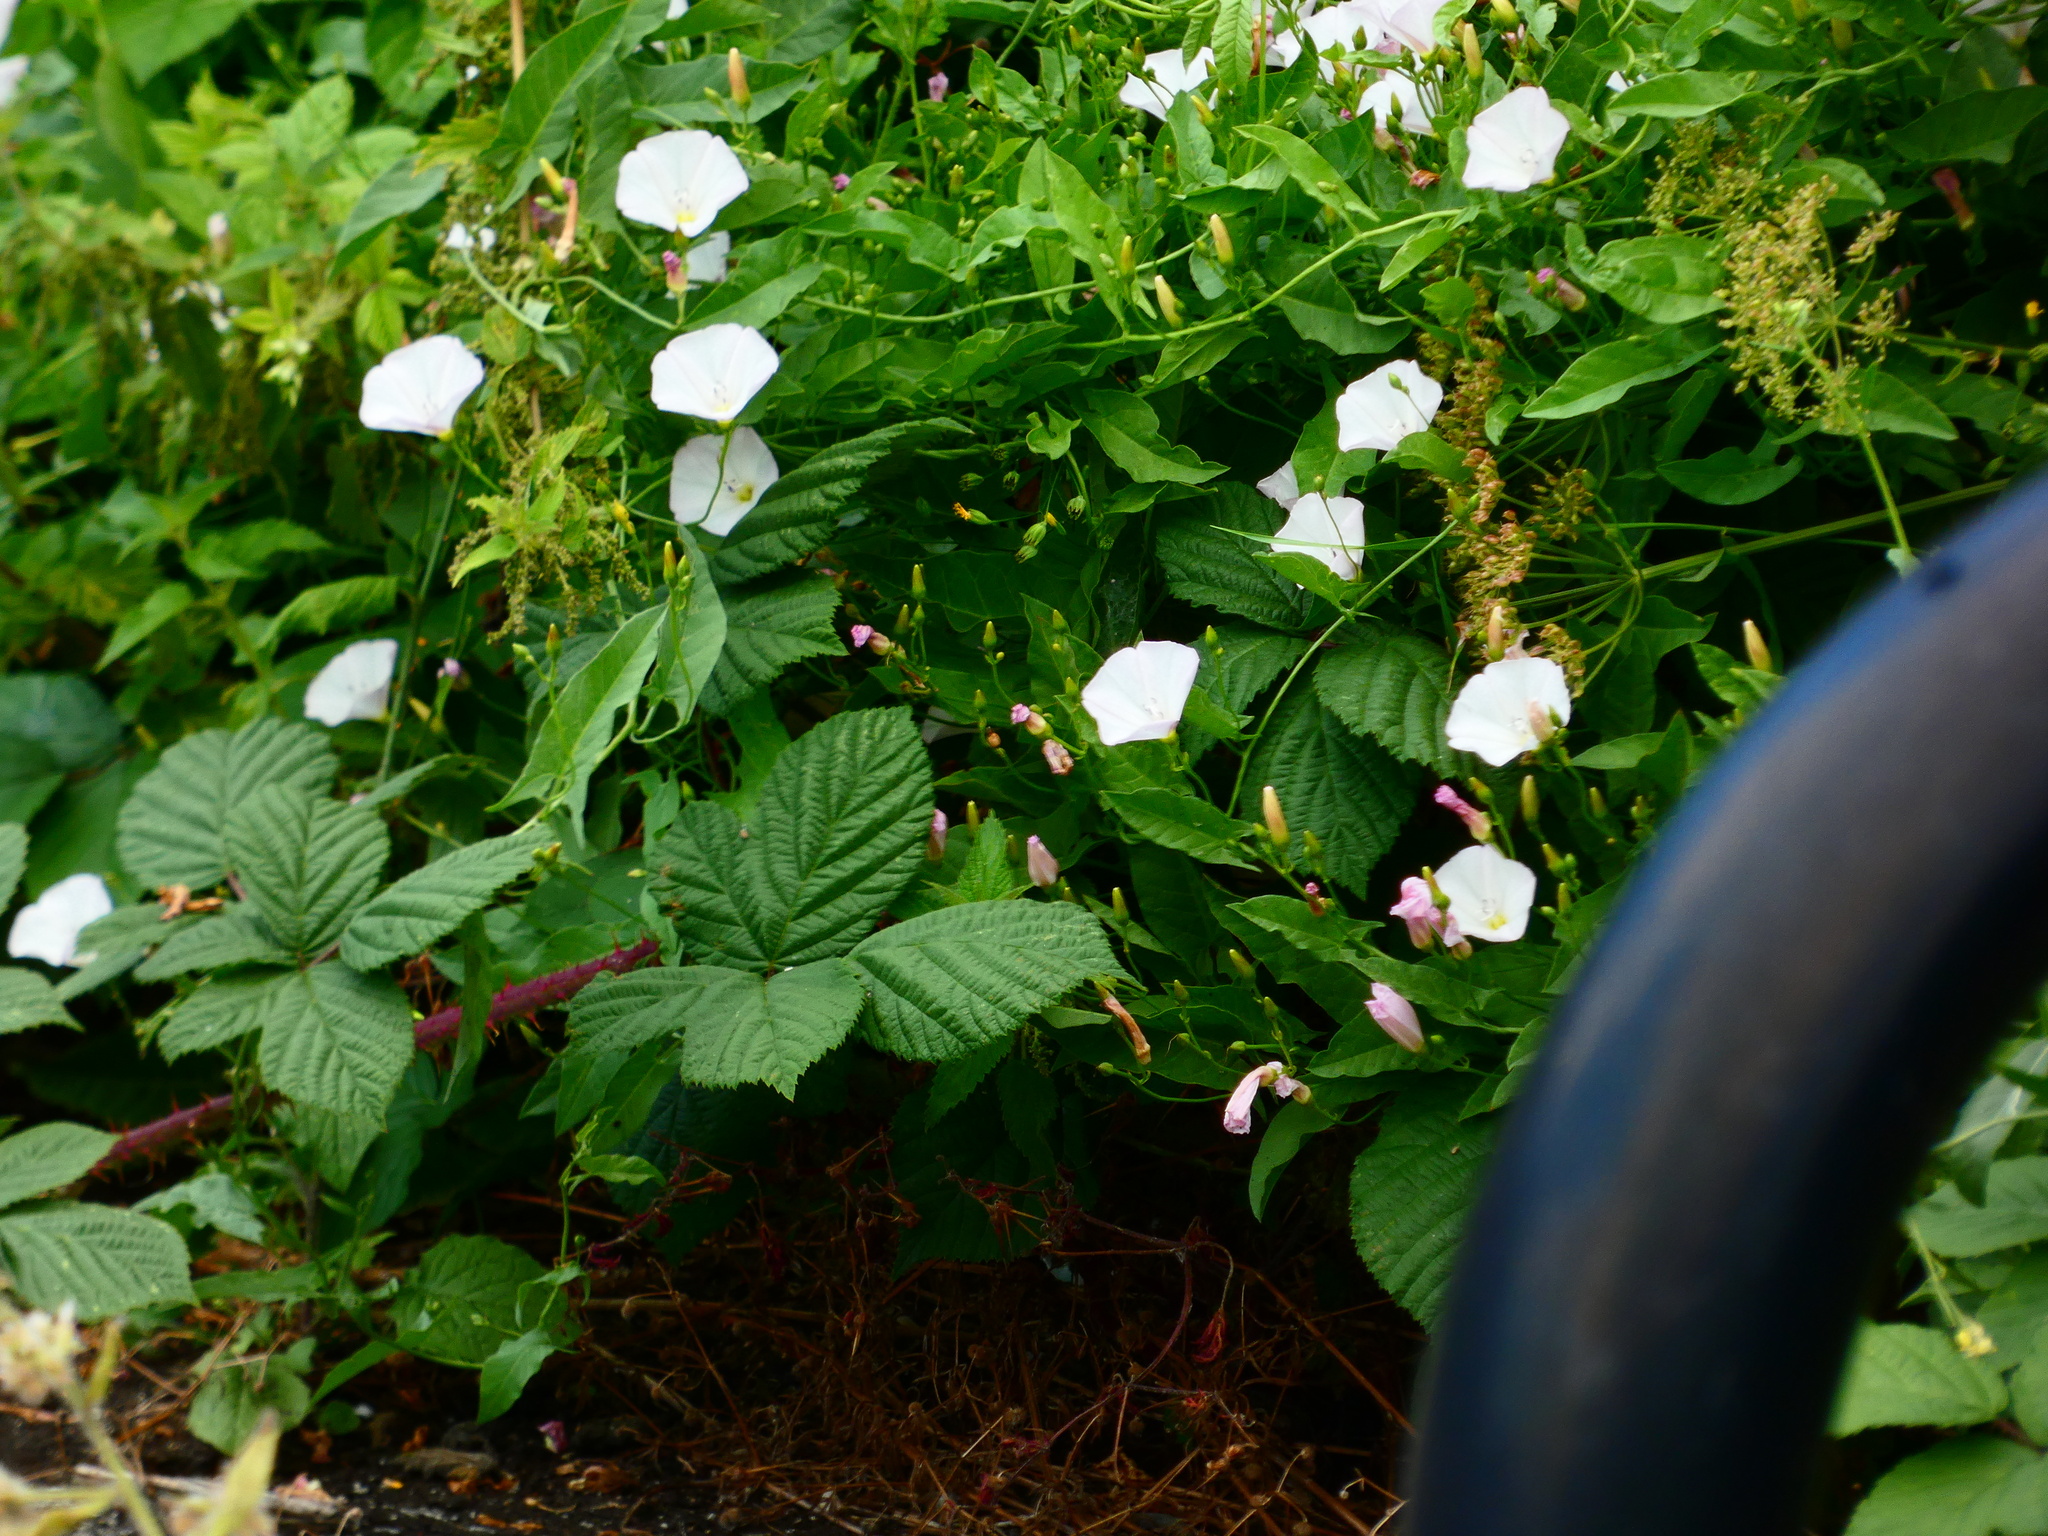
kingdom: Plantae
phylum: Tracheophyta
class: Magnoliopsida
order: Solanales
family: Convolvulaceae
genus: Convolvulus
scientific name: Convolvulus arvensis
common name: Field bindweed
